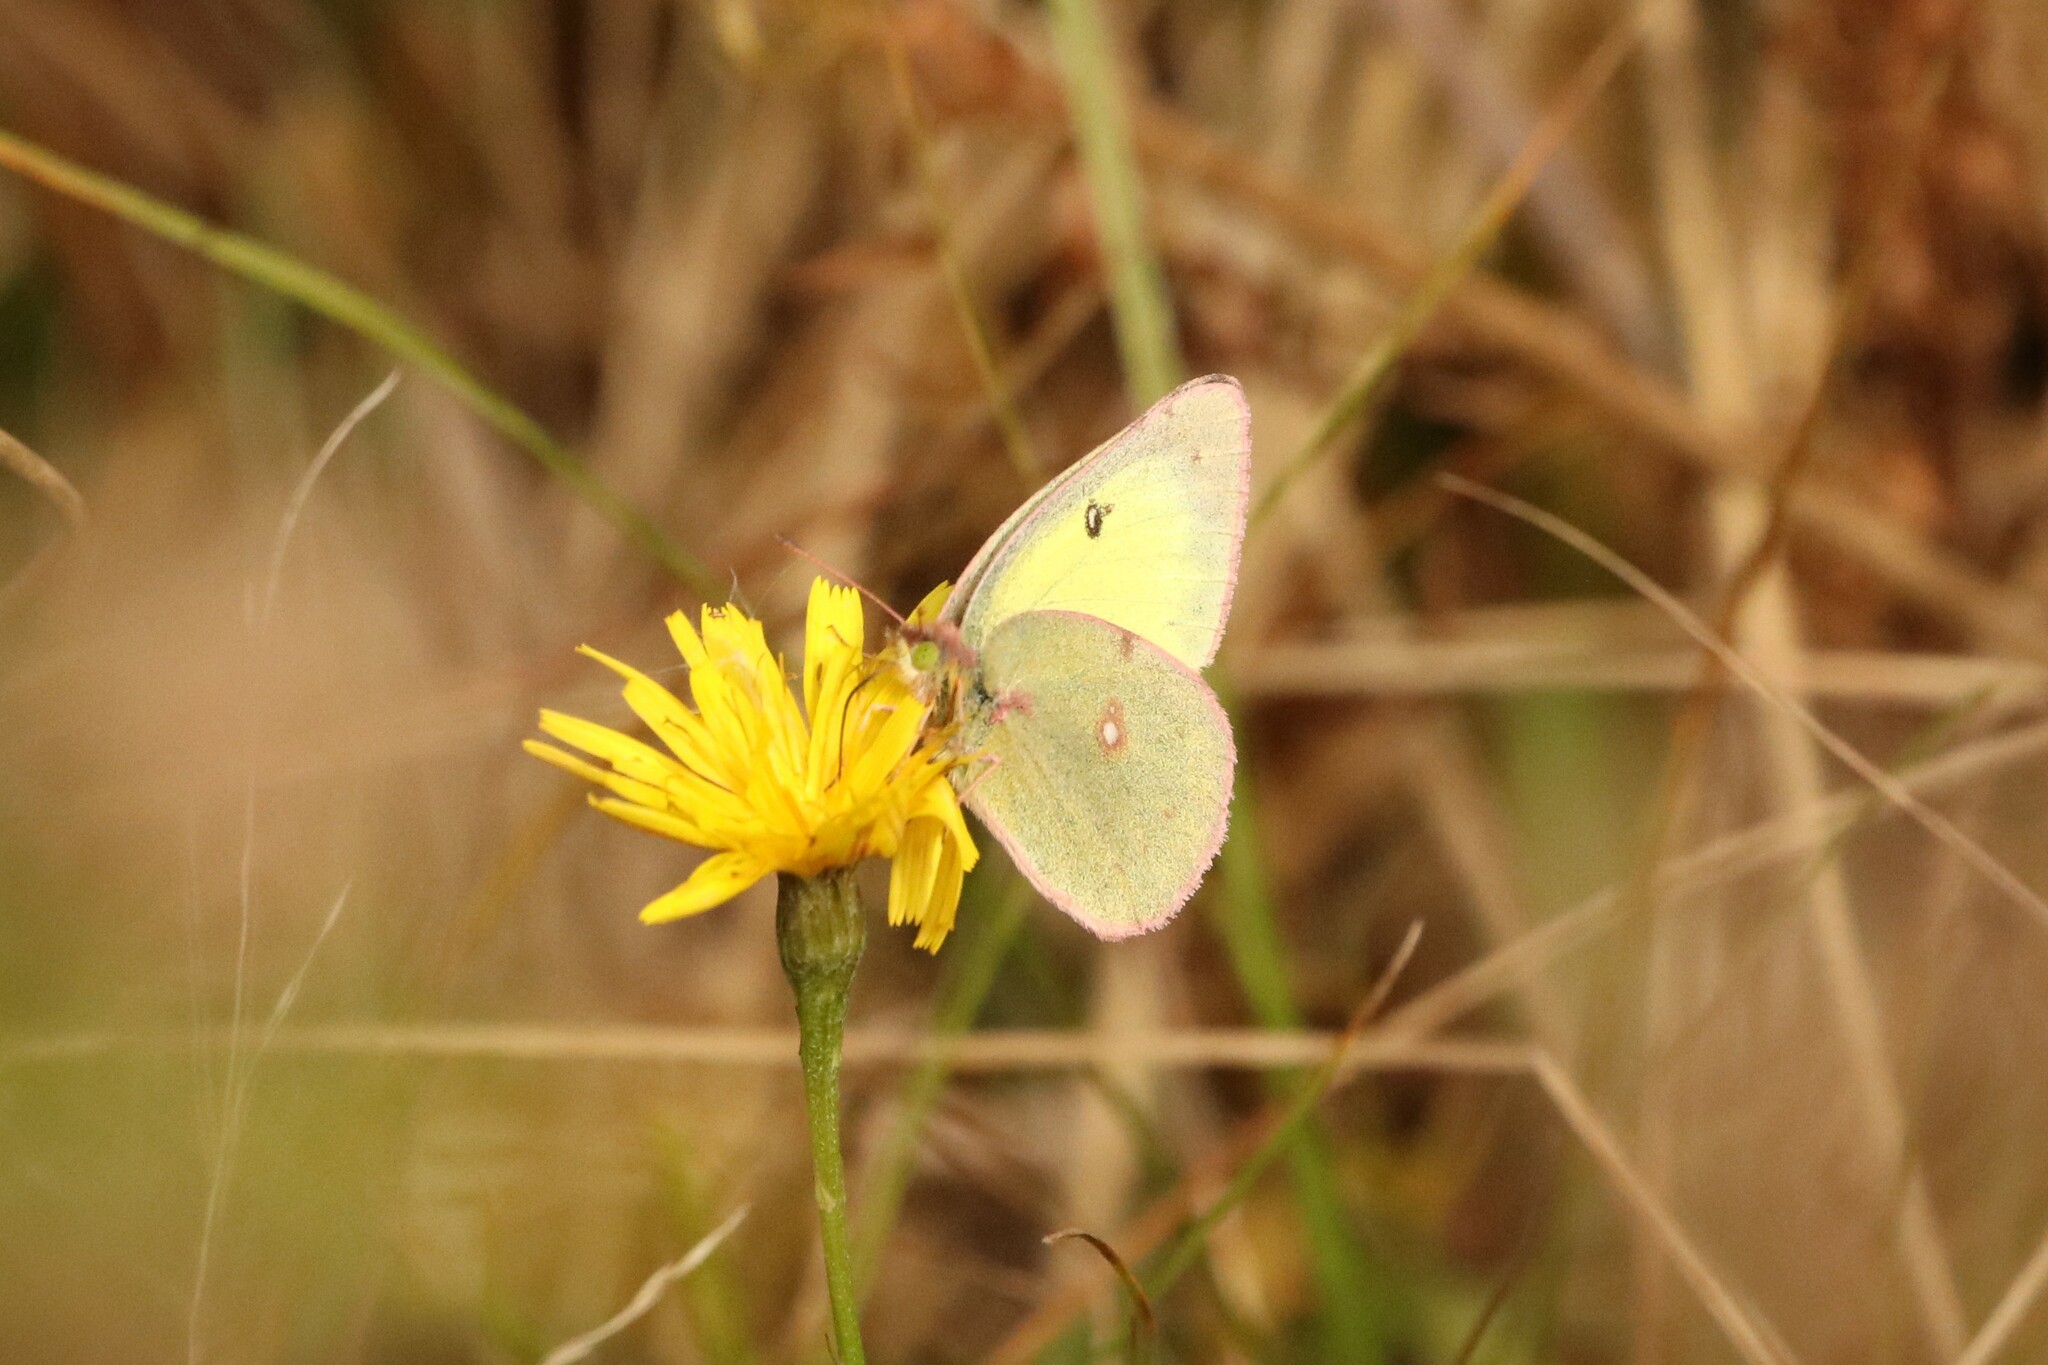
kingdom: Animalia
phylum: Arthropoda
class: Insecta
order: Lepidoptera
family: Pieridae
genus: Colias
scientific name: Colias philodice
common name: Clouded sulphur
